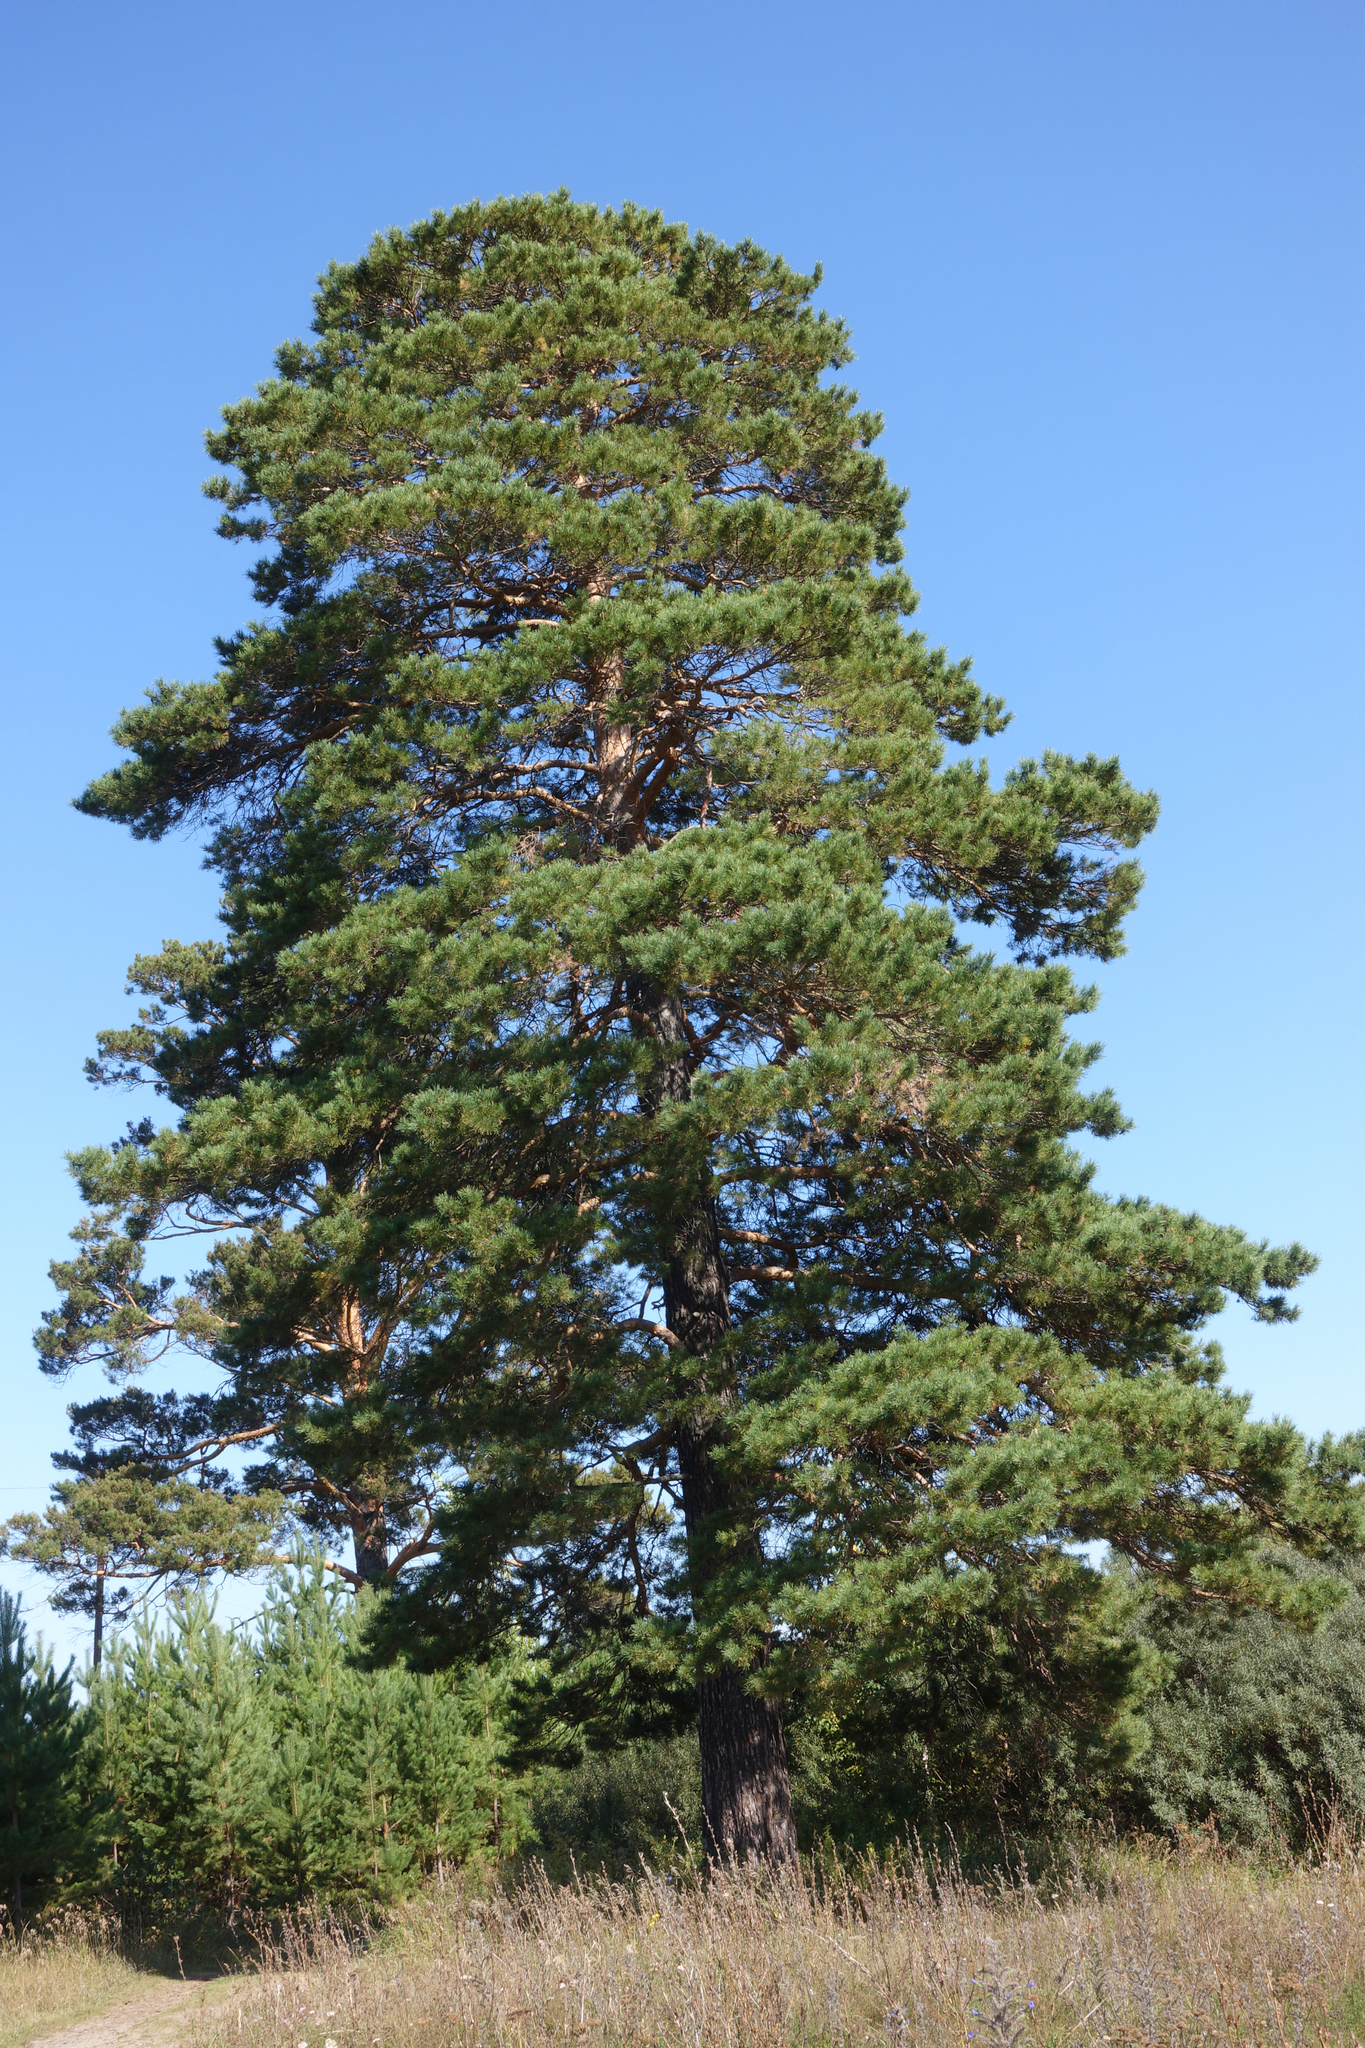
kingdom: Plantae
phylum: Tracheophyta
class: Pinopsida
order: Pinales
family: Pinaceae
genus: Pinus
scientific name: Pinus sylvestris
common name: Scots pine
